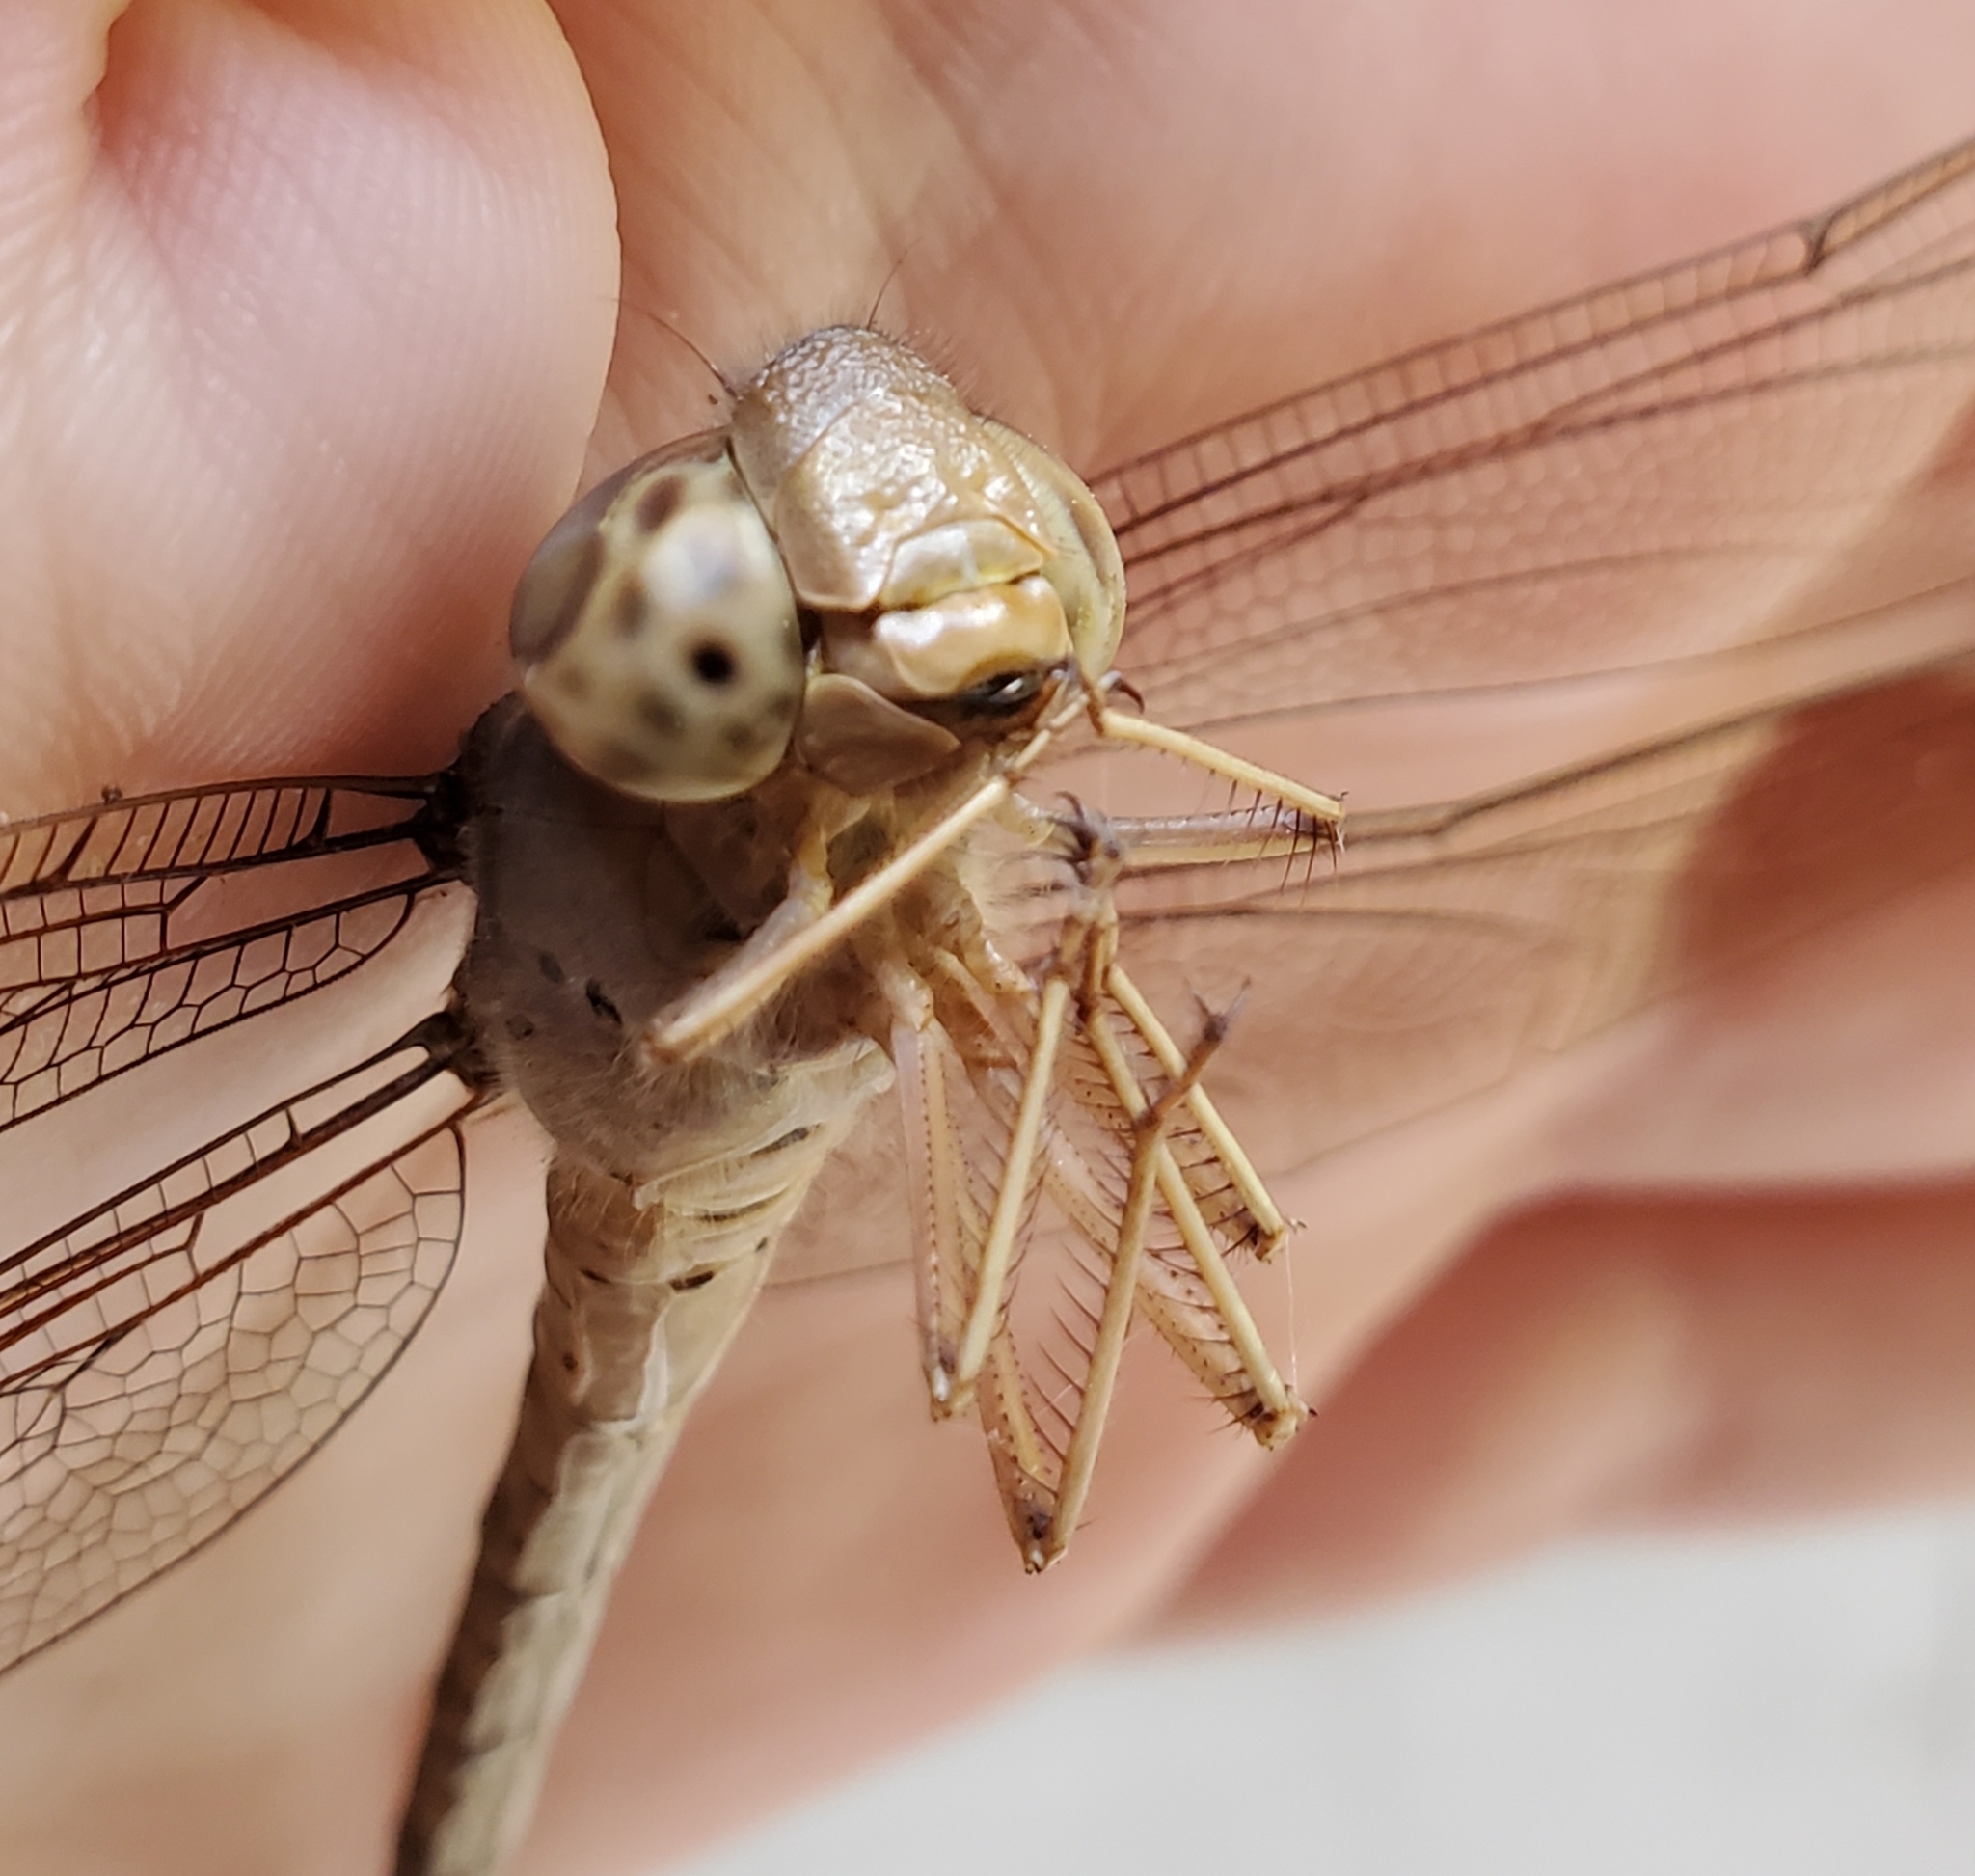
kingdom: Animalia
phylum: Arthropoda
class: Insecta
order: Odonata
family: Aeshnidae
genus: Gynacantha
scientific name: Gynacantha nervosa
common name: Twilight darner
